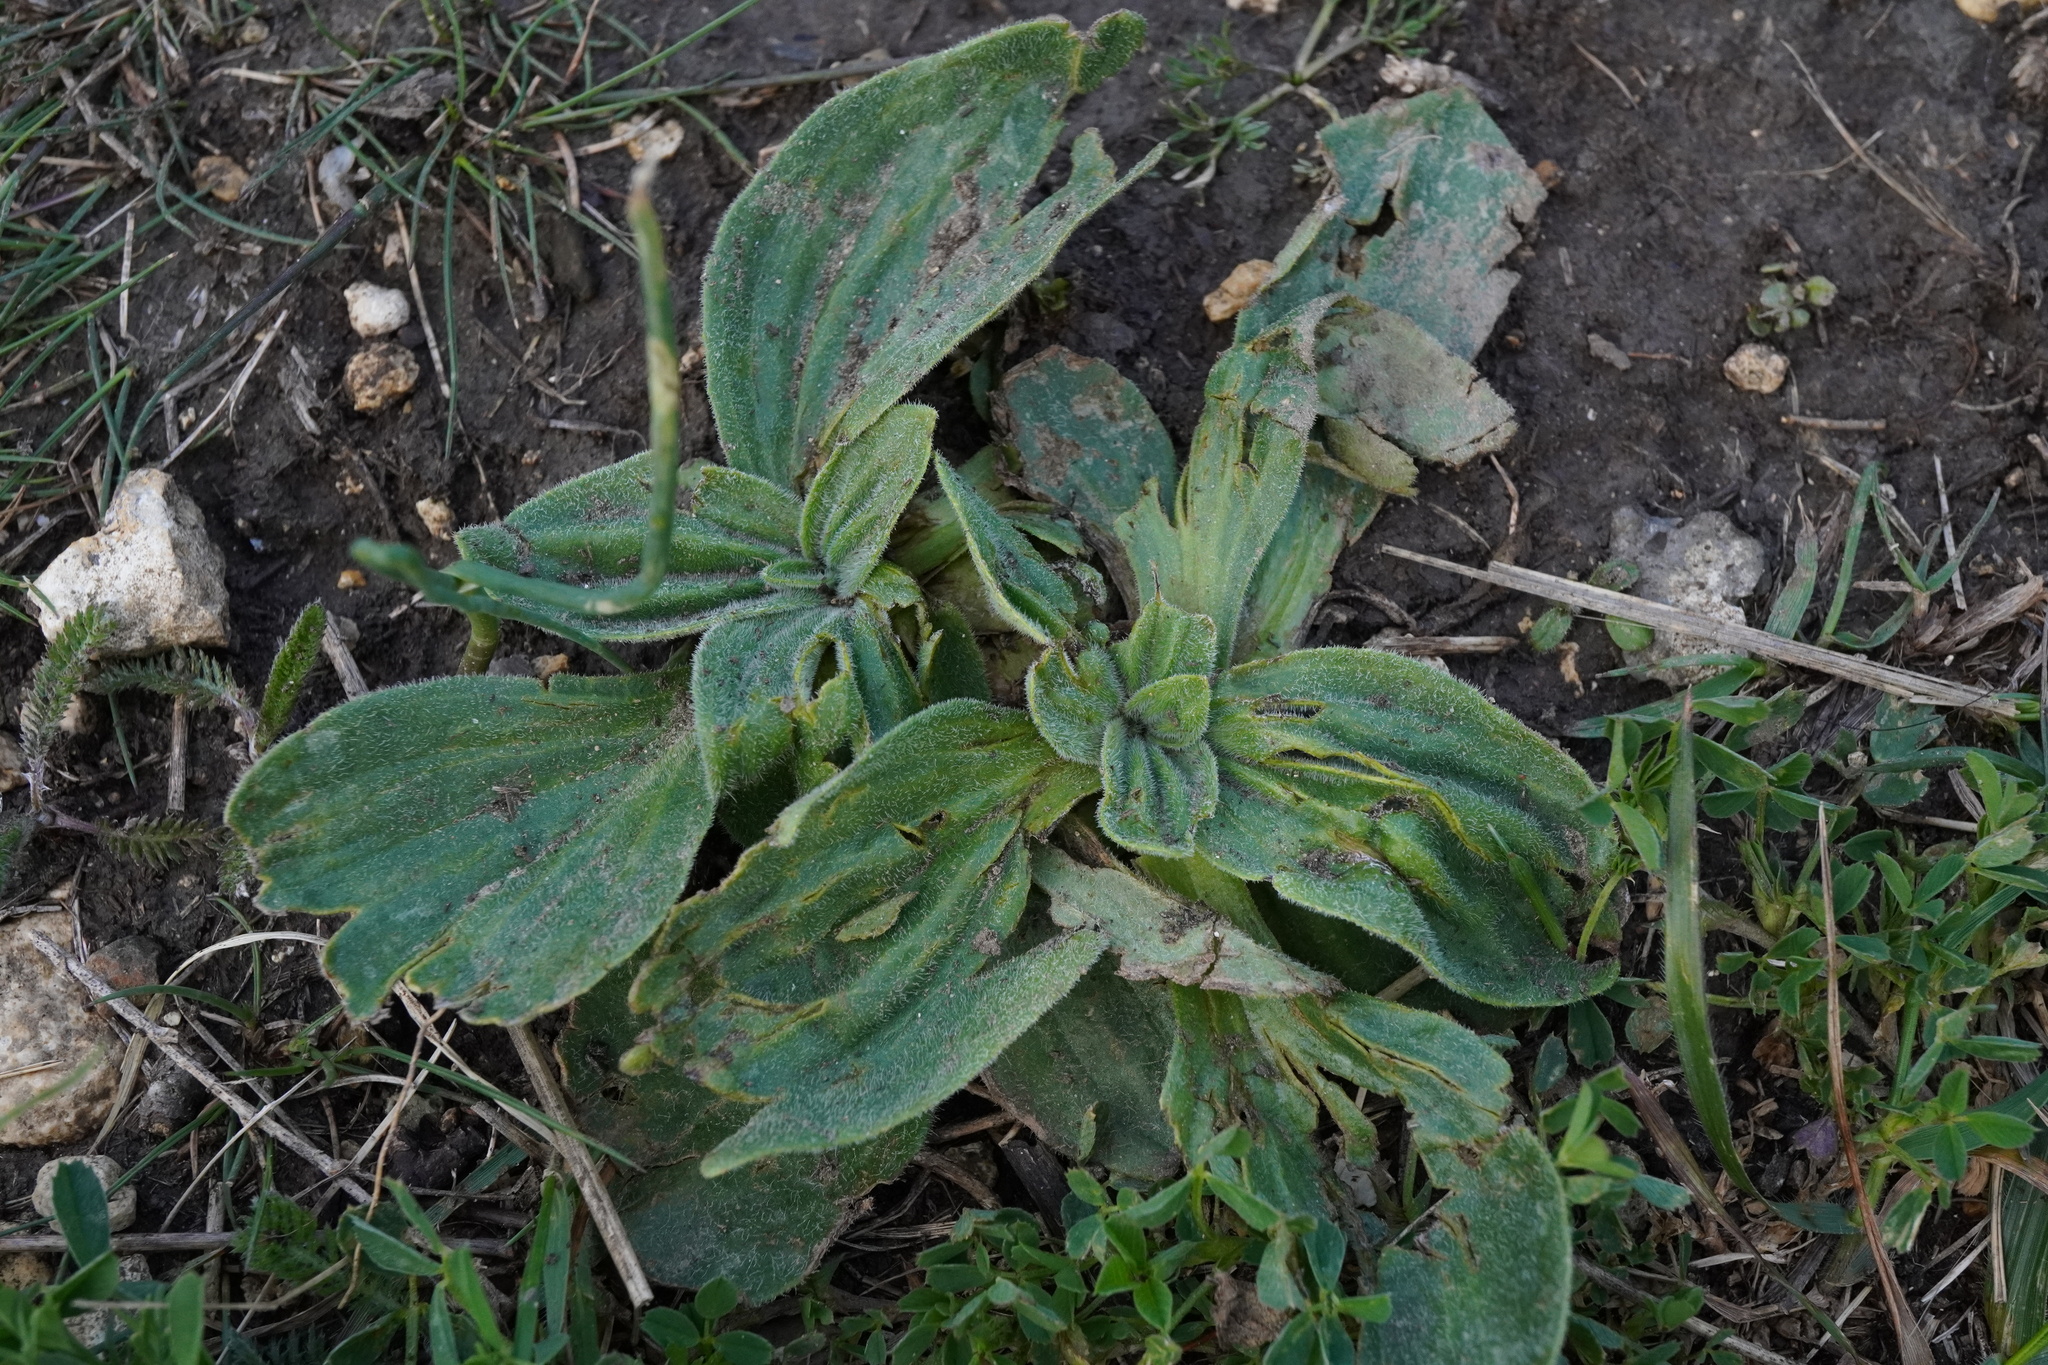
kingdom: Plantae
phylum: Tracheophyta
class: Magnoliopsida
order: Lamiales
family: Plantaginaceae
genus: Plantago
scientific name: Plantago media
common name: Hoary plantain
